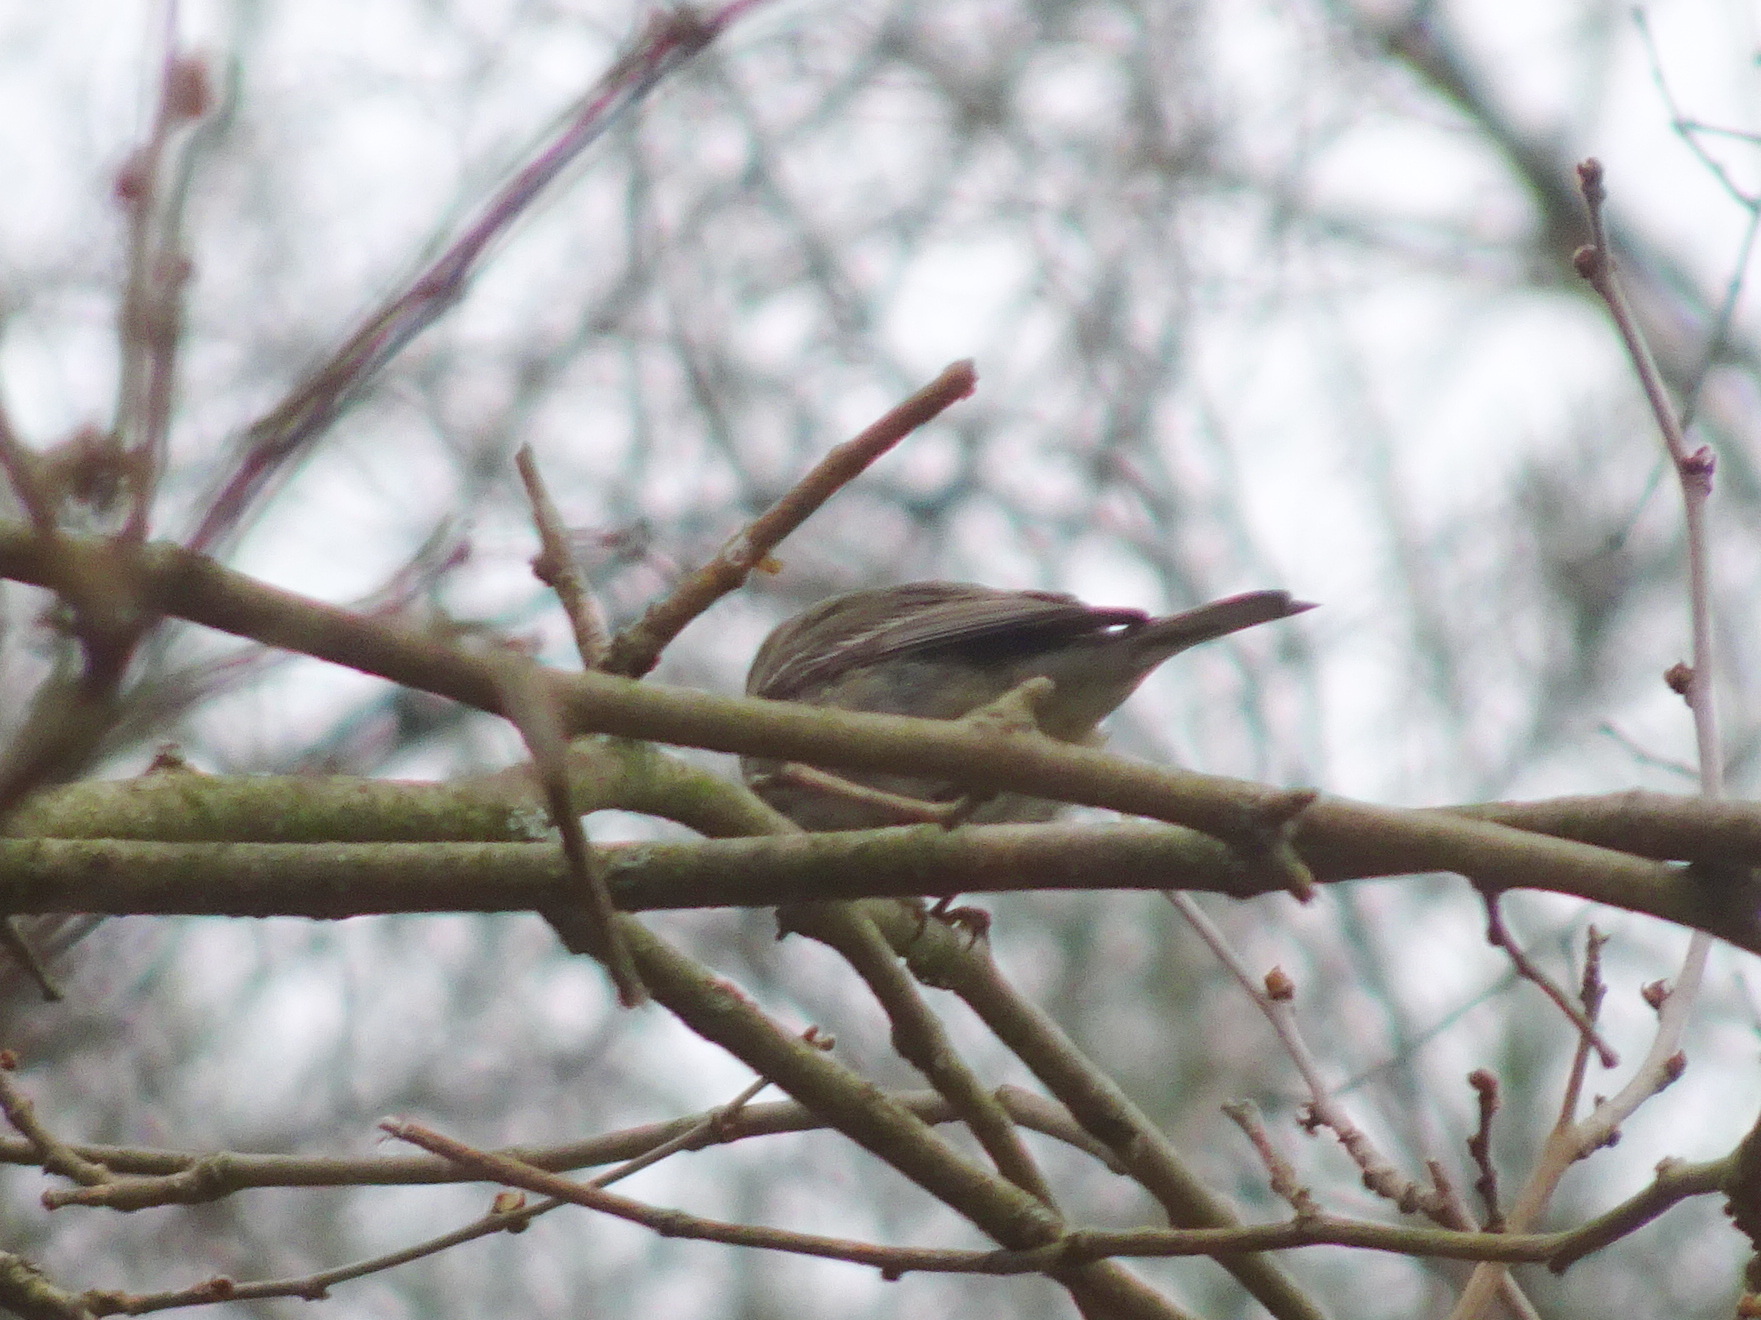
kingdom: Animalia
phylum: Chordata
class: Aves
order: Passeriformes
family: Parulidae
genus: Setophaga
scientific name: Setophaga pinus
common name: Pine warbler
